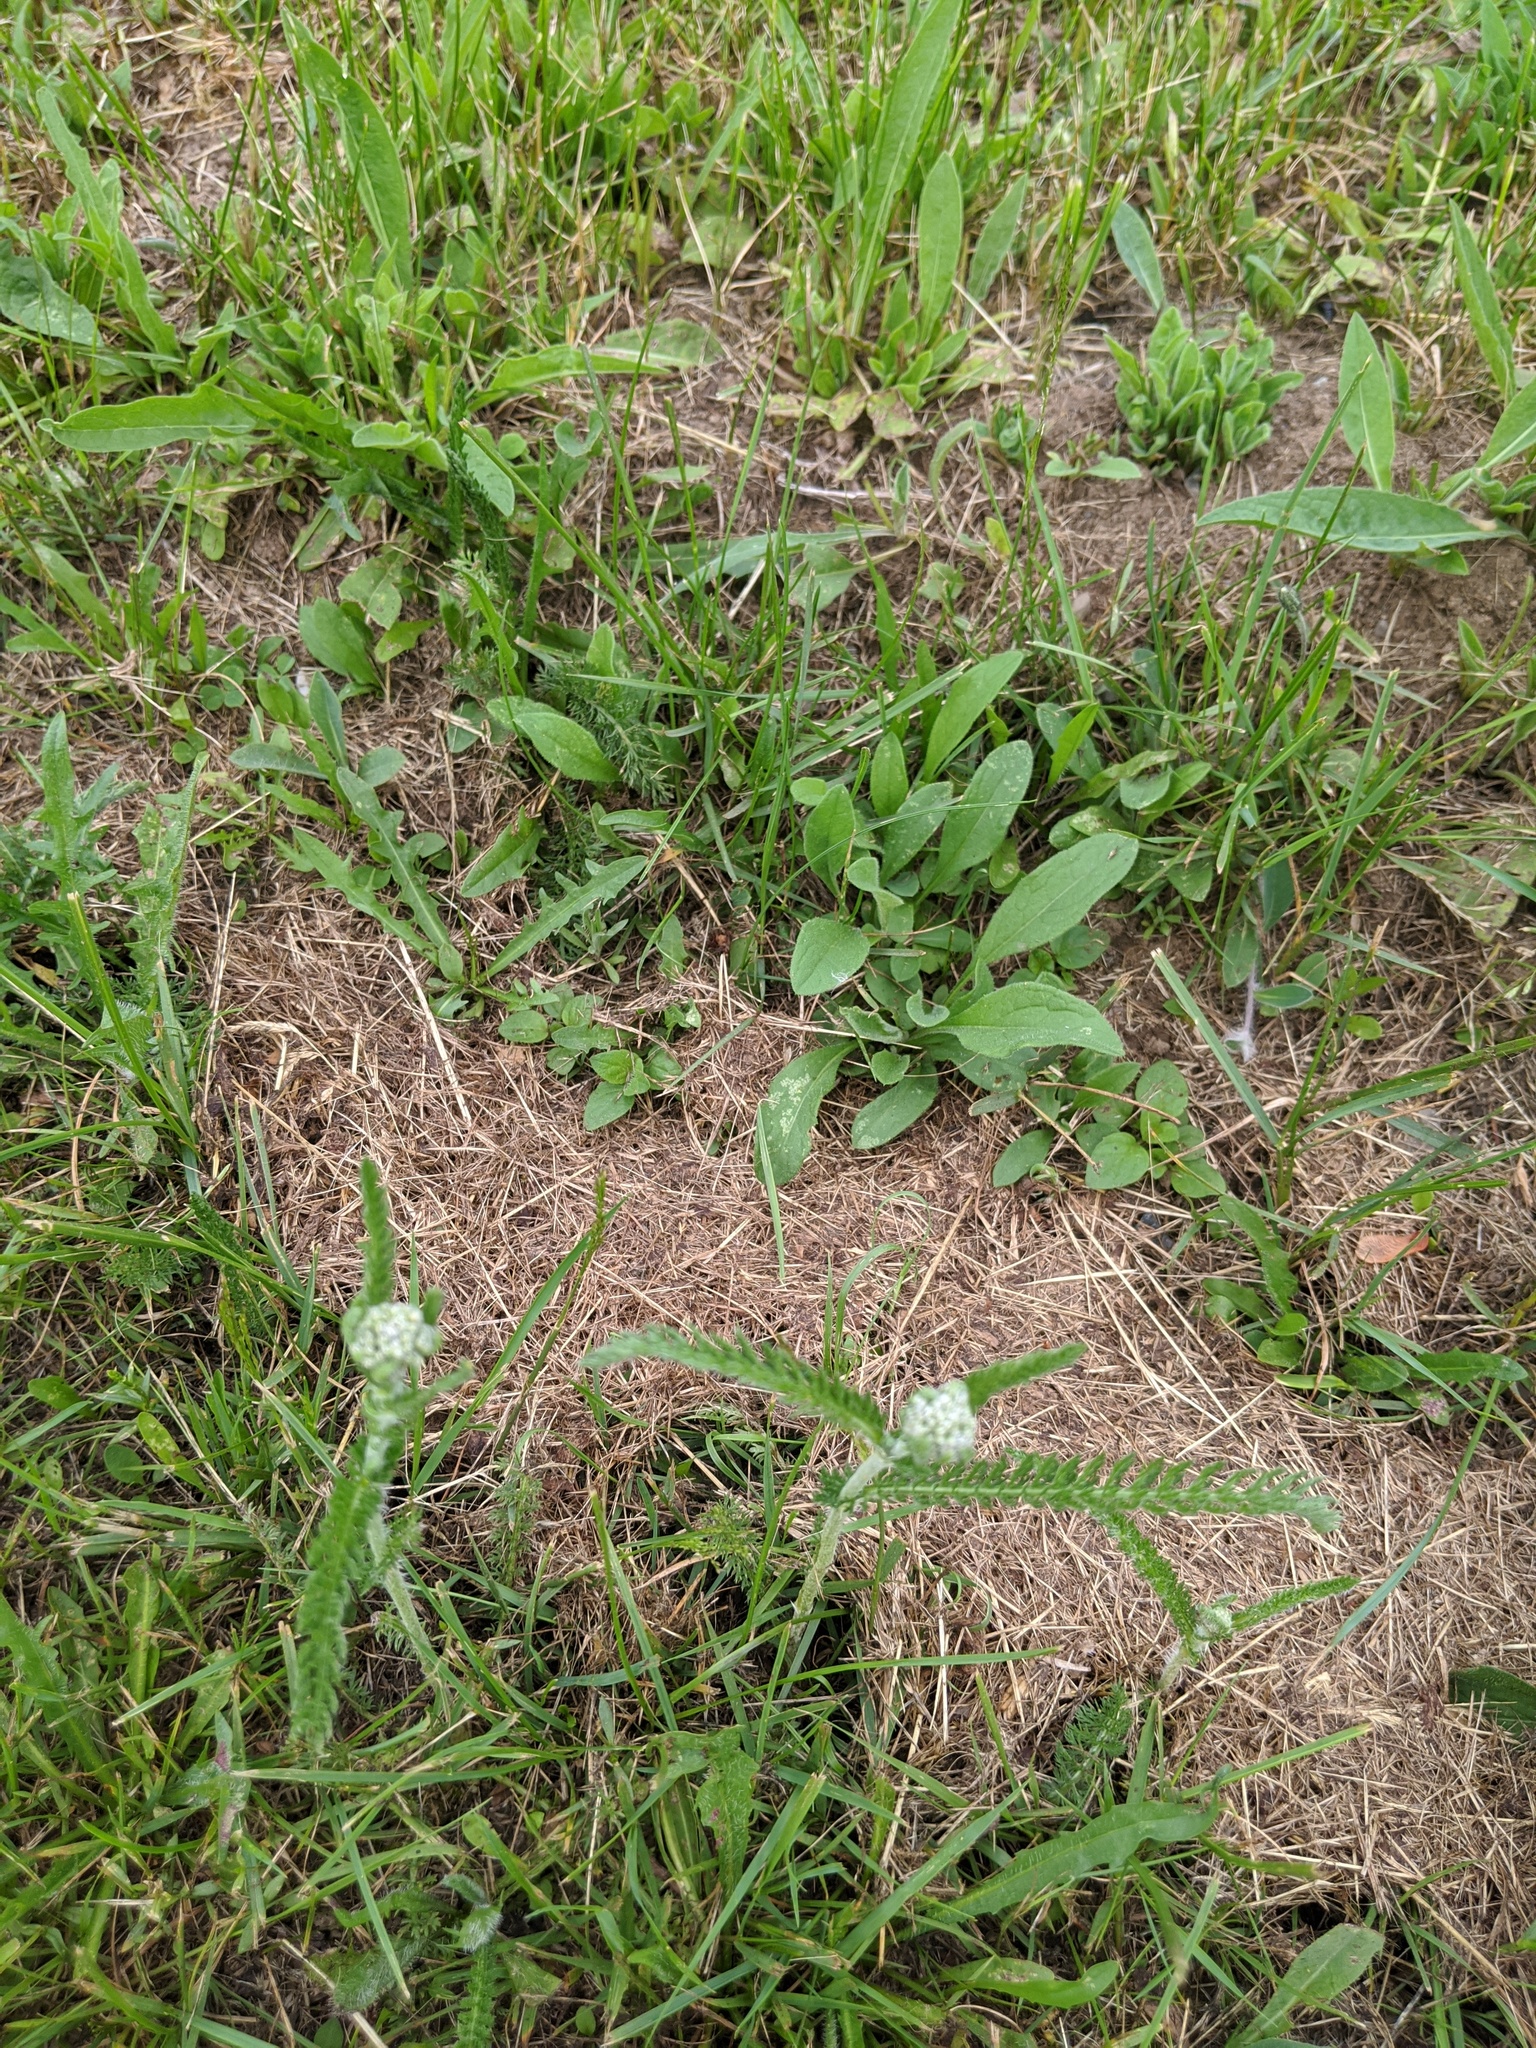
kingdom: Plantae
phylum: Tracheophyta
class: Magnoliopsida
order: Asterales
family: Asteraceae
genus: Achillea
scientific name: Achillea millefolium
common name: Yarrow
